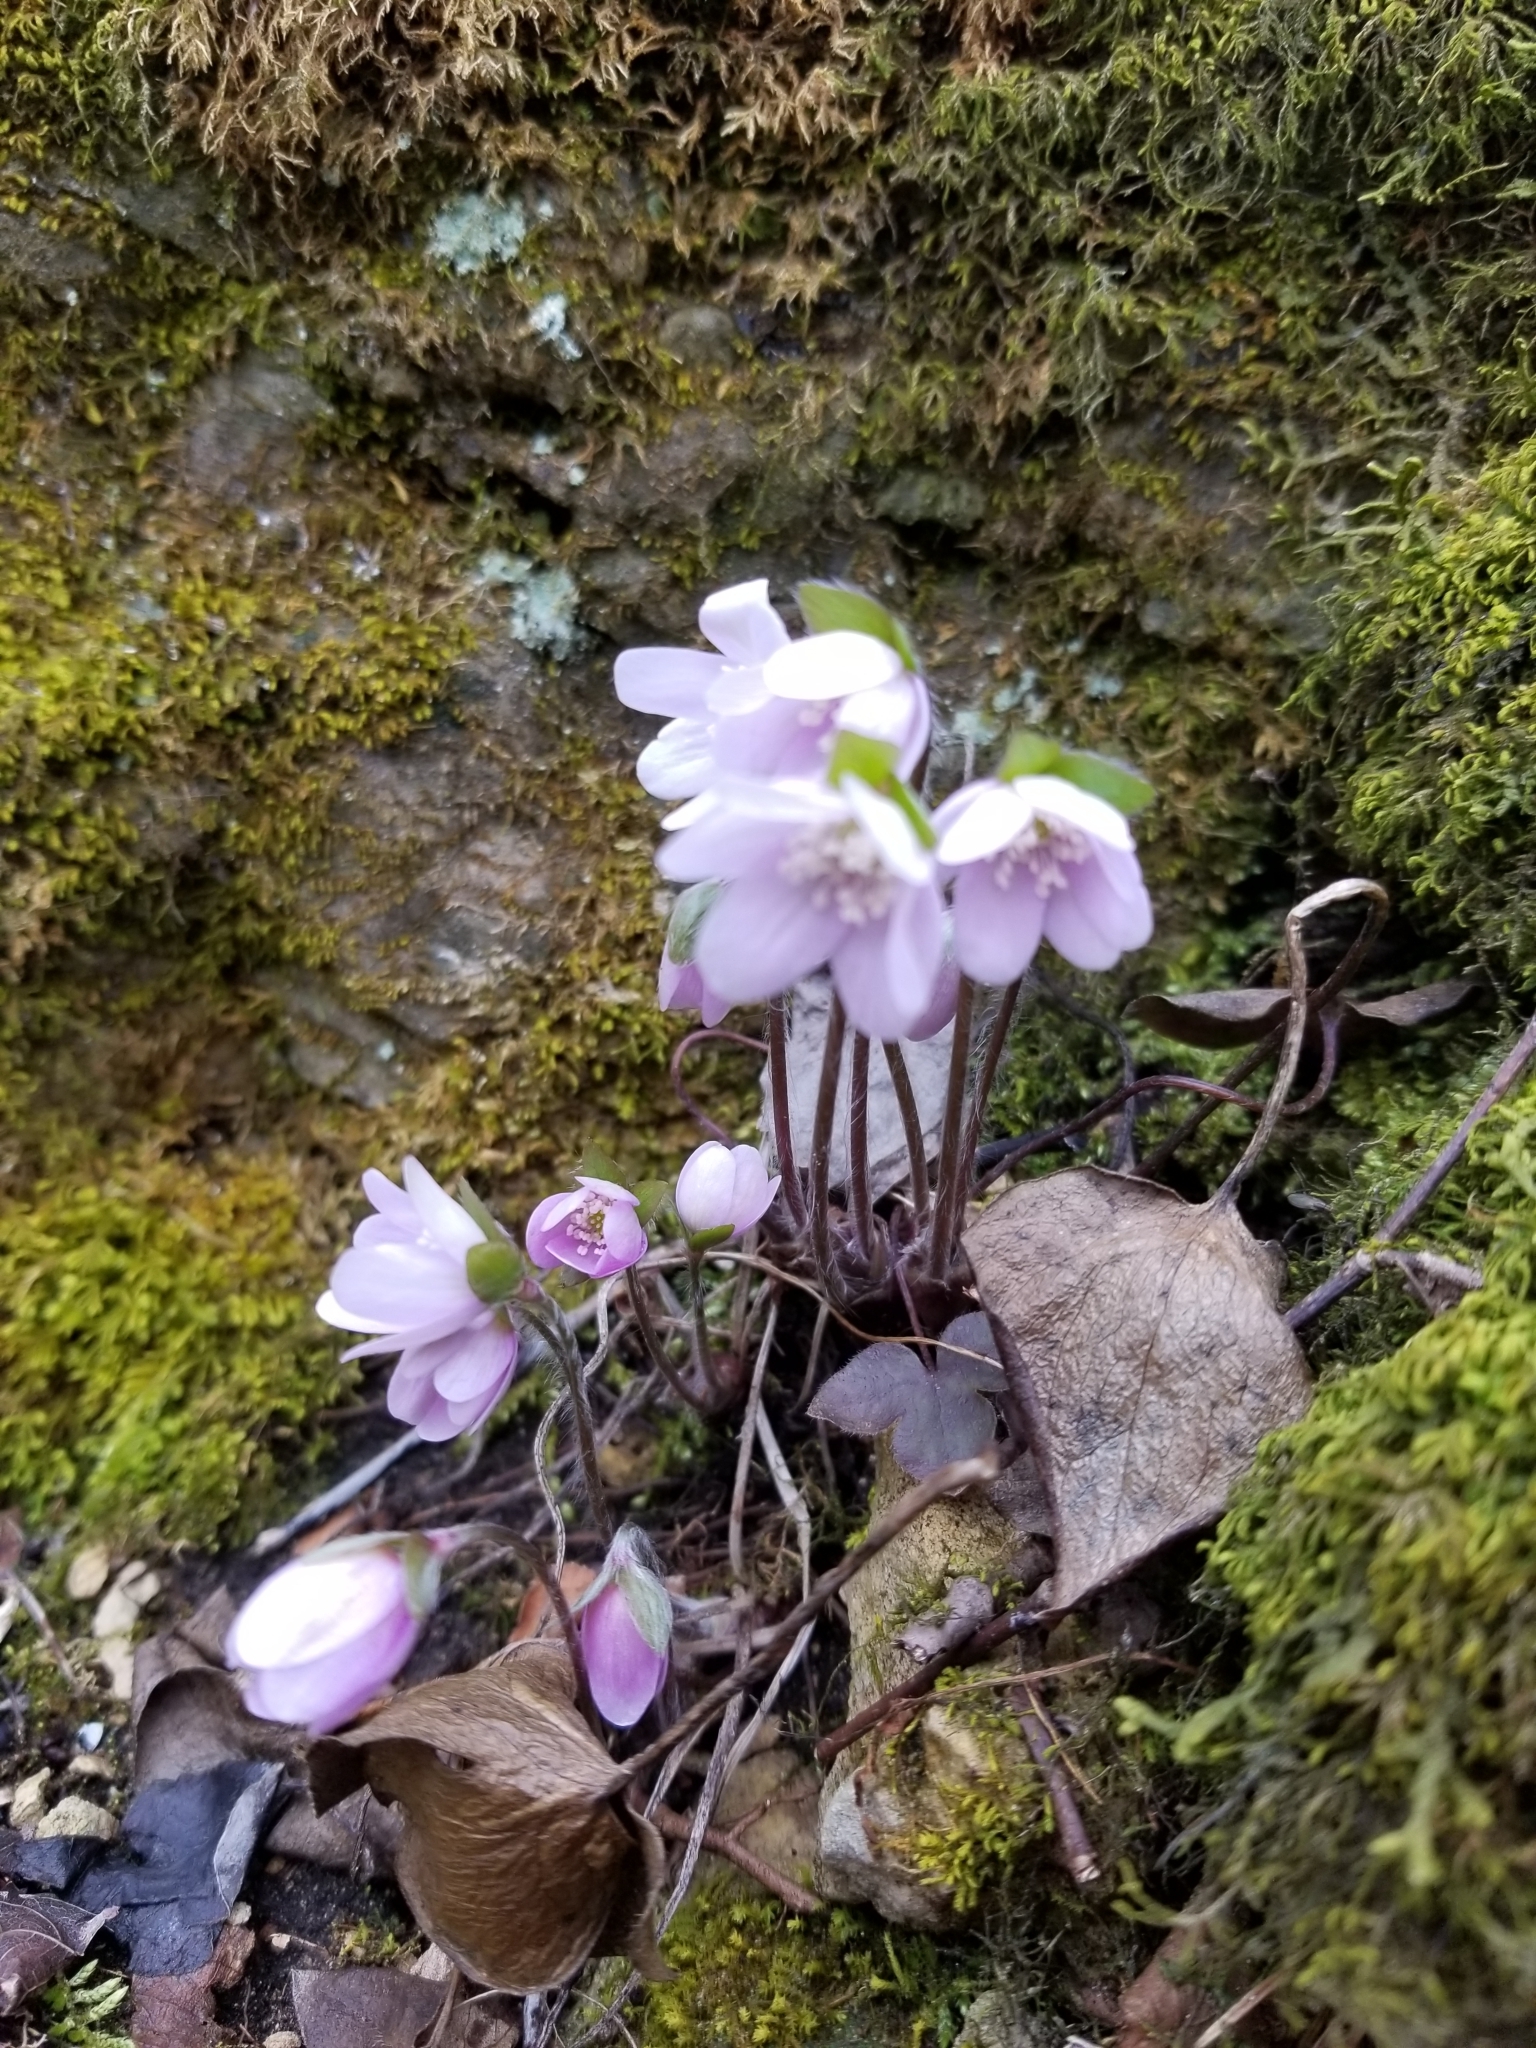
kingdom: Plantae
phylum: Tracheophyta
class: Magnoliopsida
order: Ranunculales
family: Ranunculaceae
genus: Hepatica
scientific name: Hepatica acutiloba
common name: Sharp-lobed hepatica
